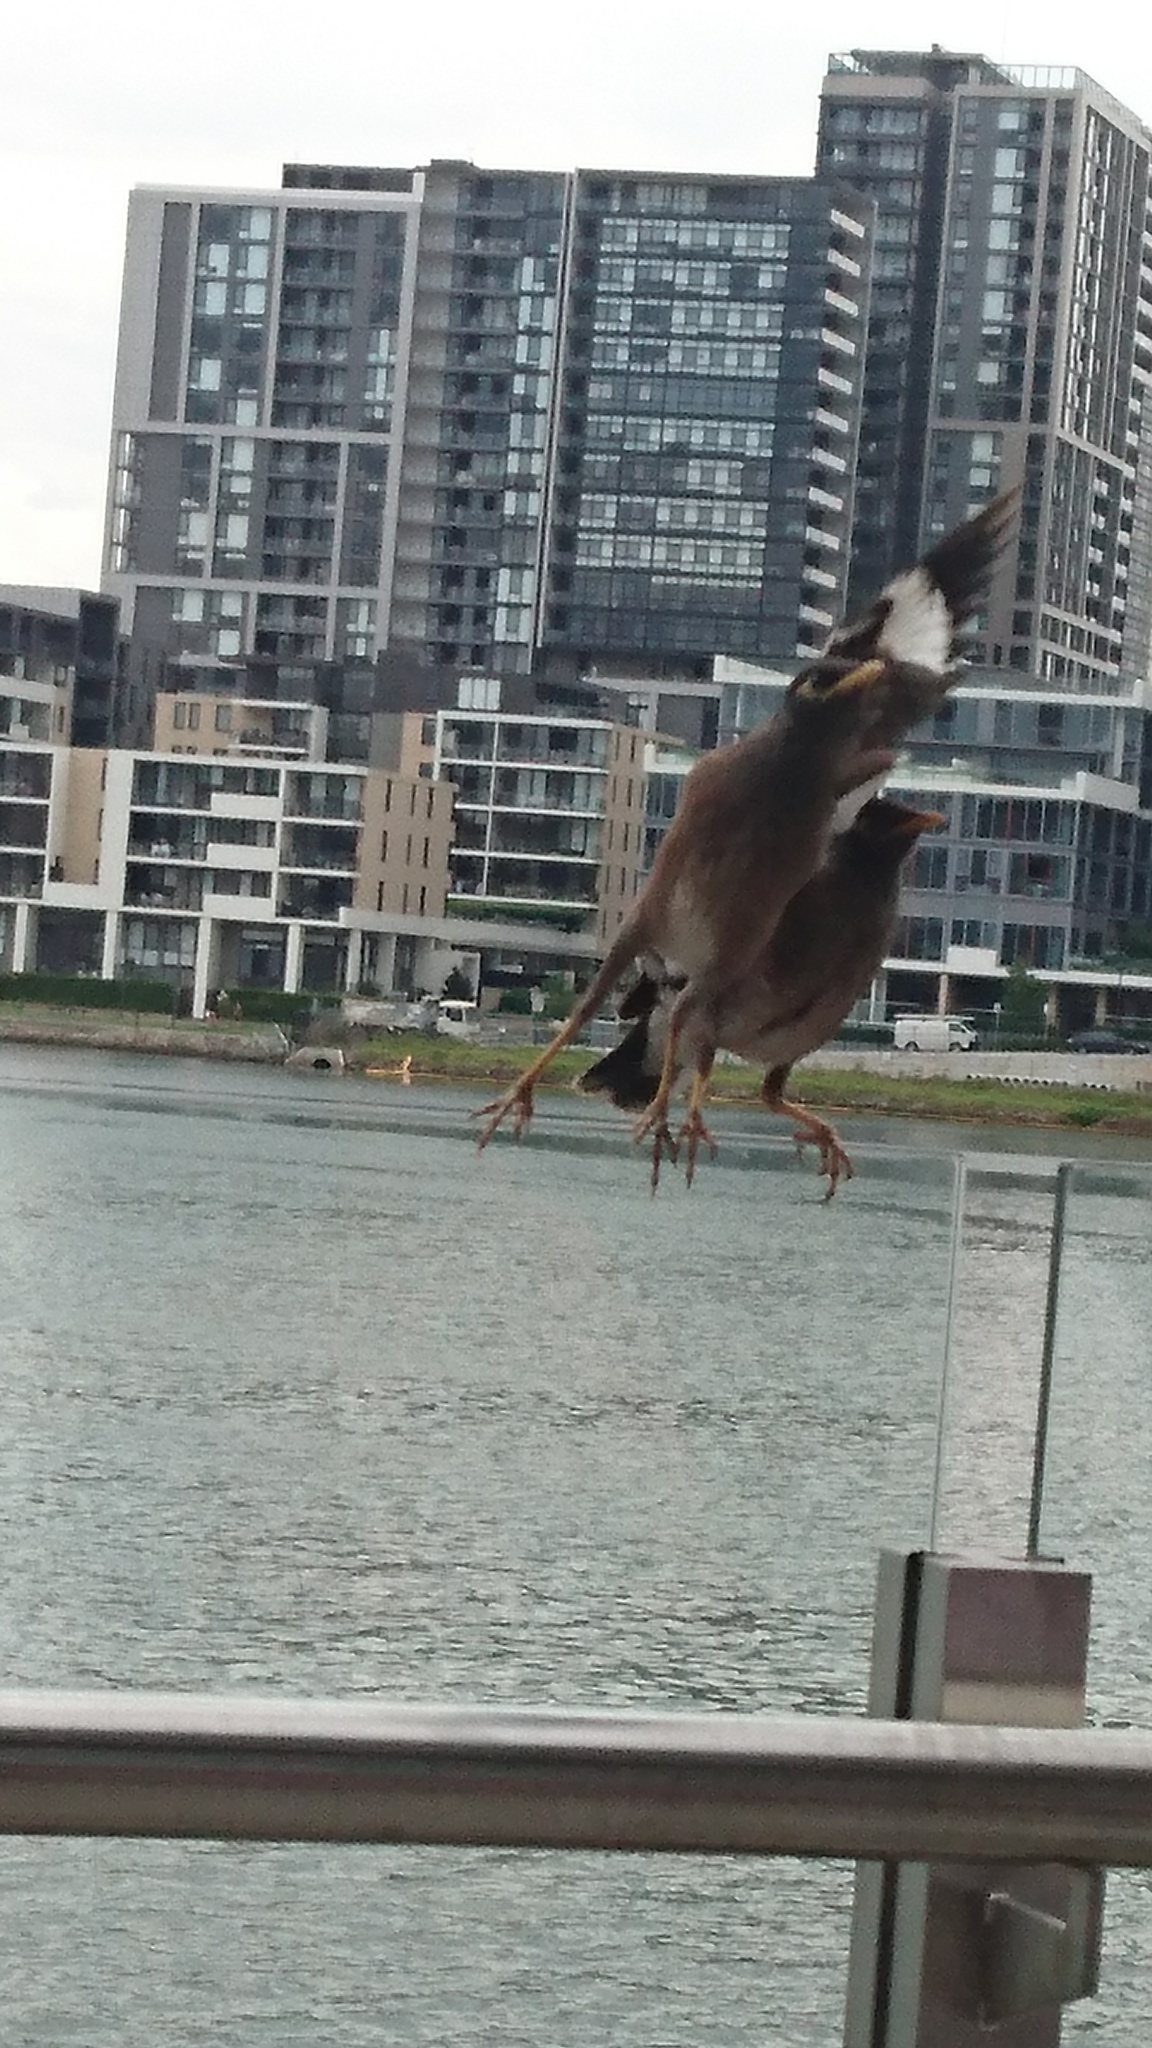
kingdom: Animalia
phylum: Chordata
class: Aves
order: Passeriformes
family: Sturnidae
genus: Acridotheres
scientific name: Acridotheres tristis
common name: Common myna
